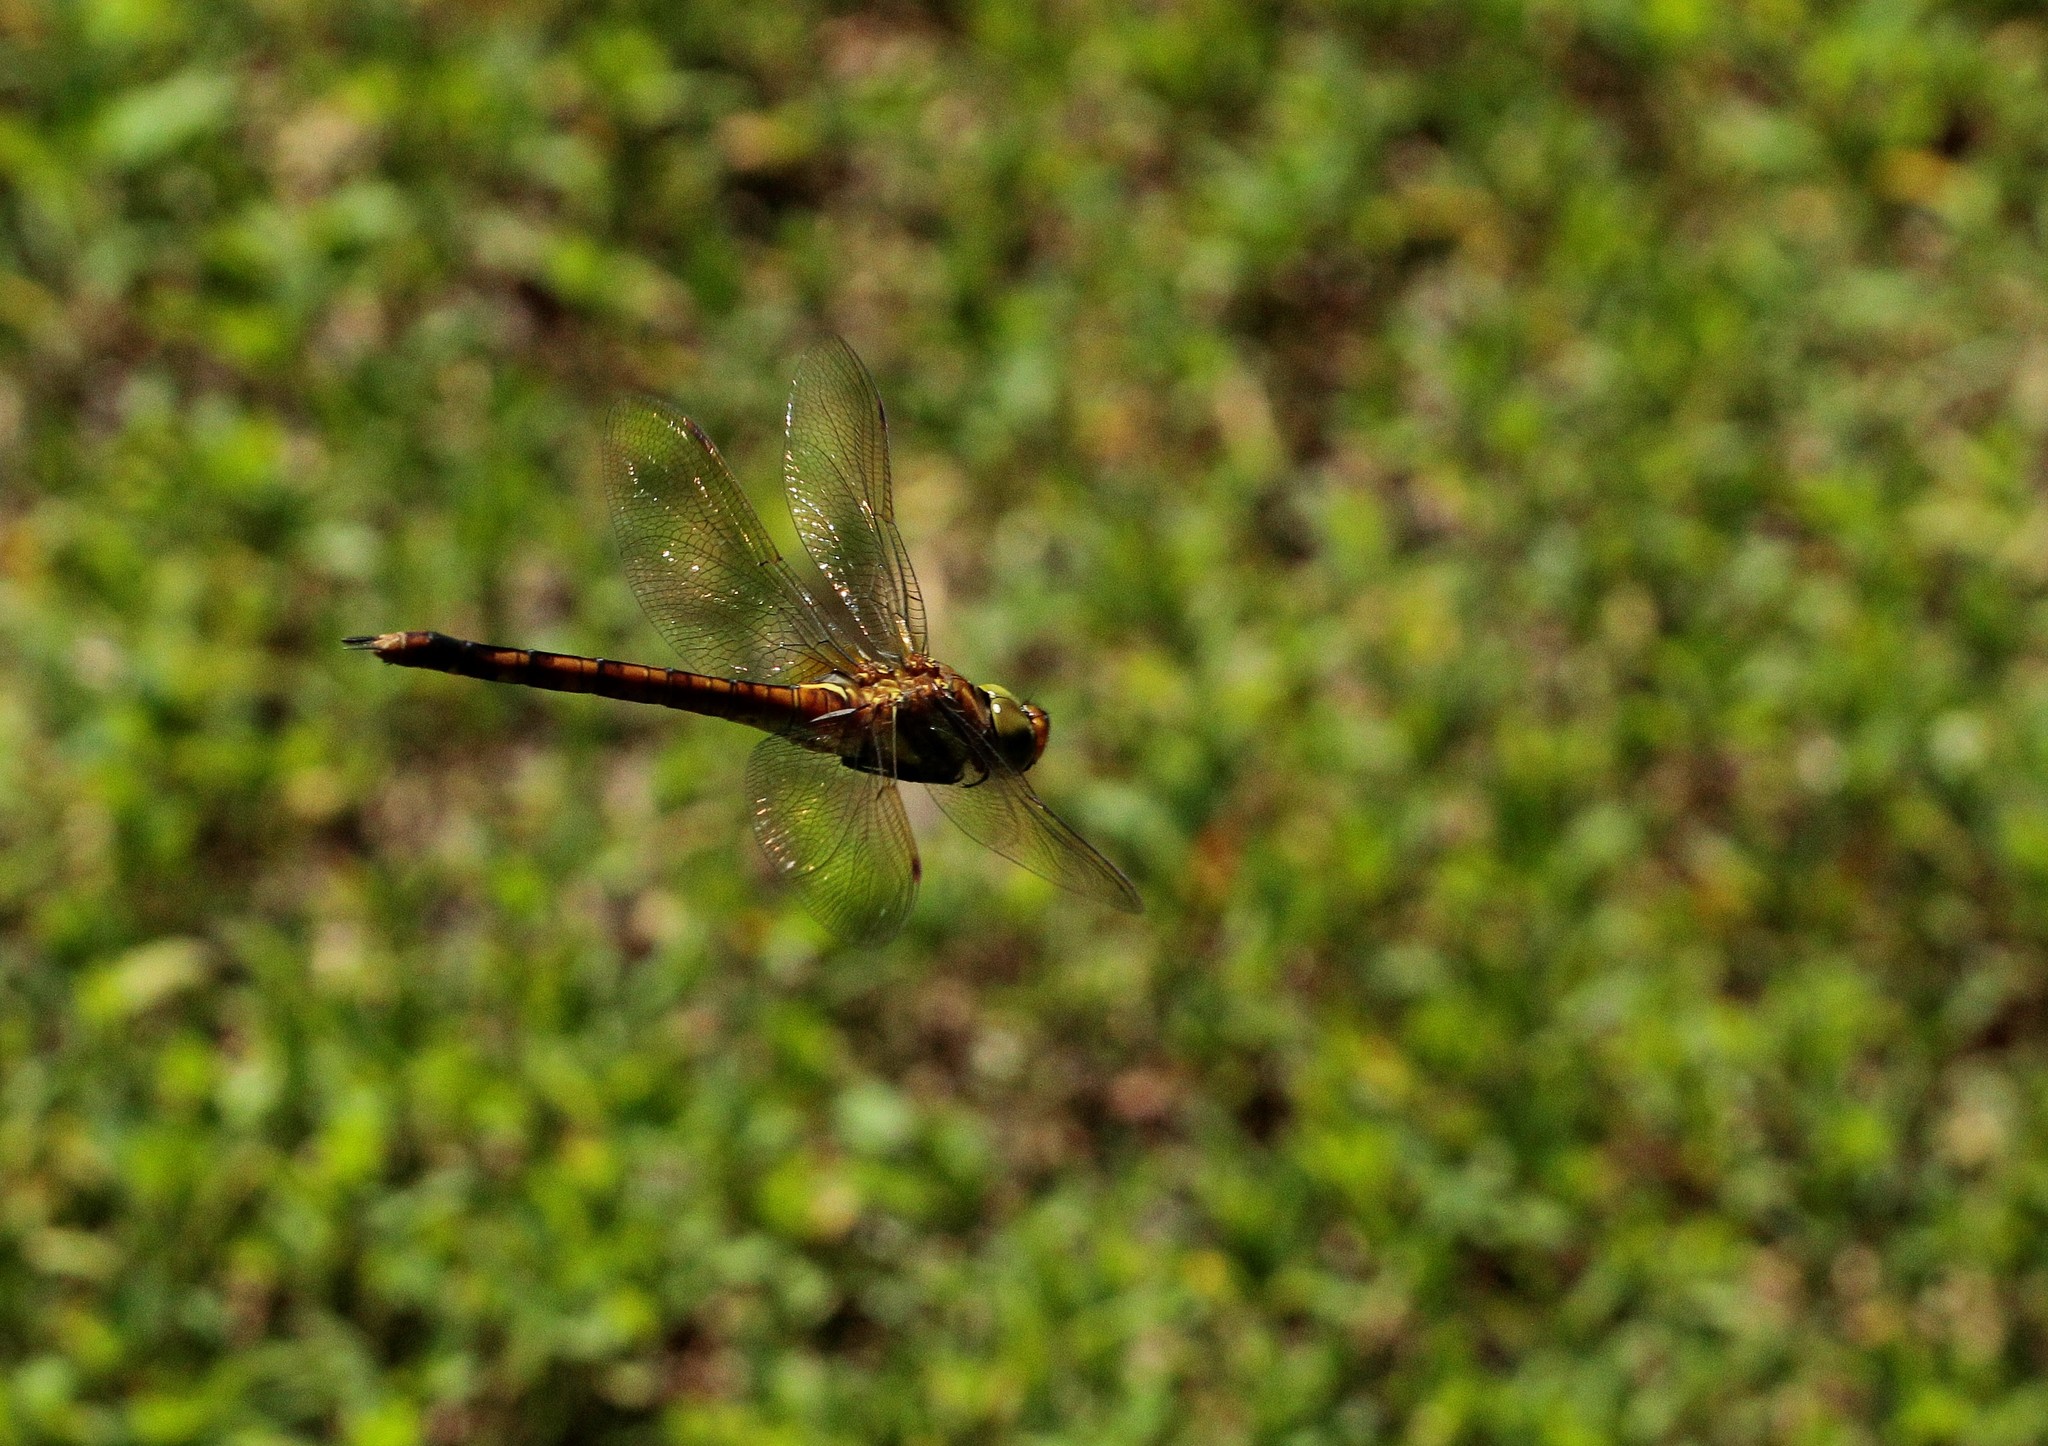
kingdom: Animalia
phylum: Arthropoda
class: Insecta
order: Odonata
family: Aeshnidae
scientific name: Aeshnidae
